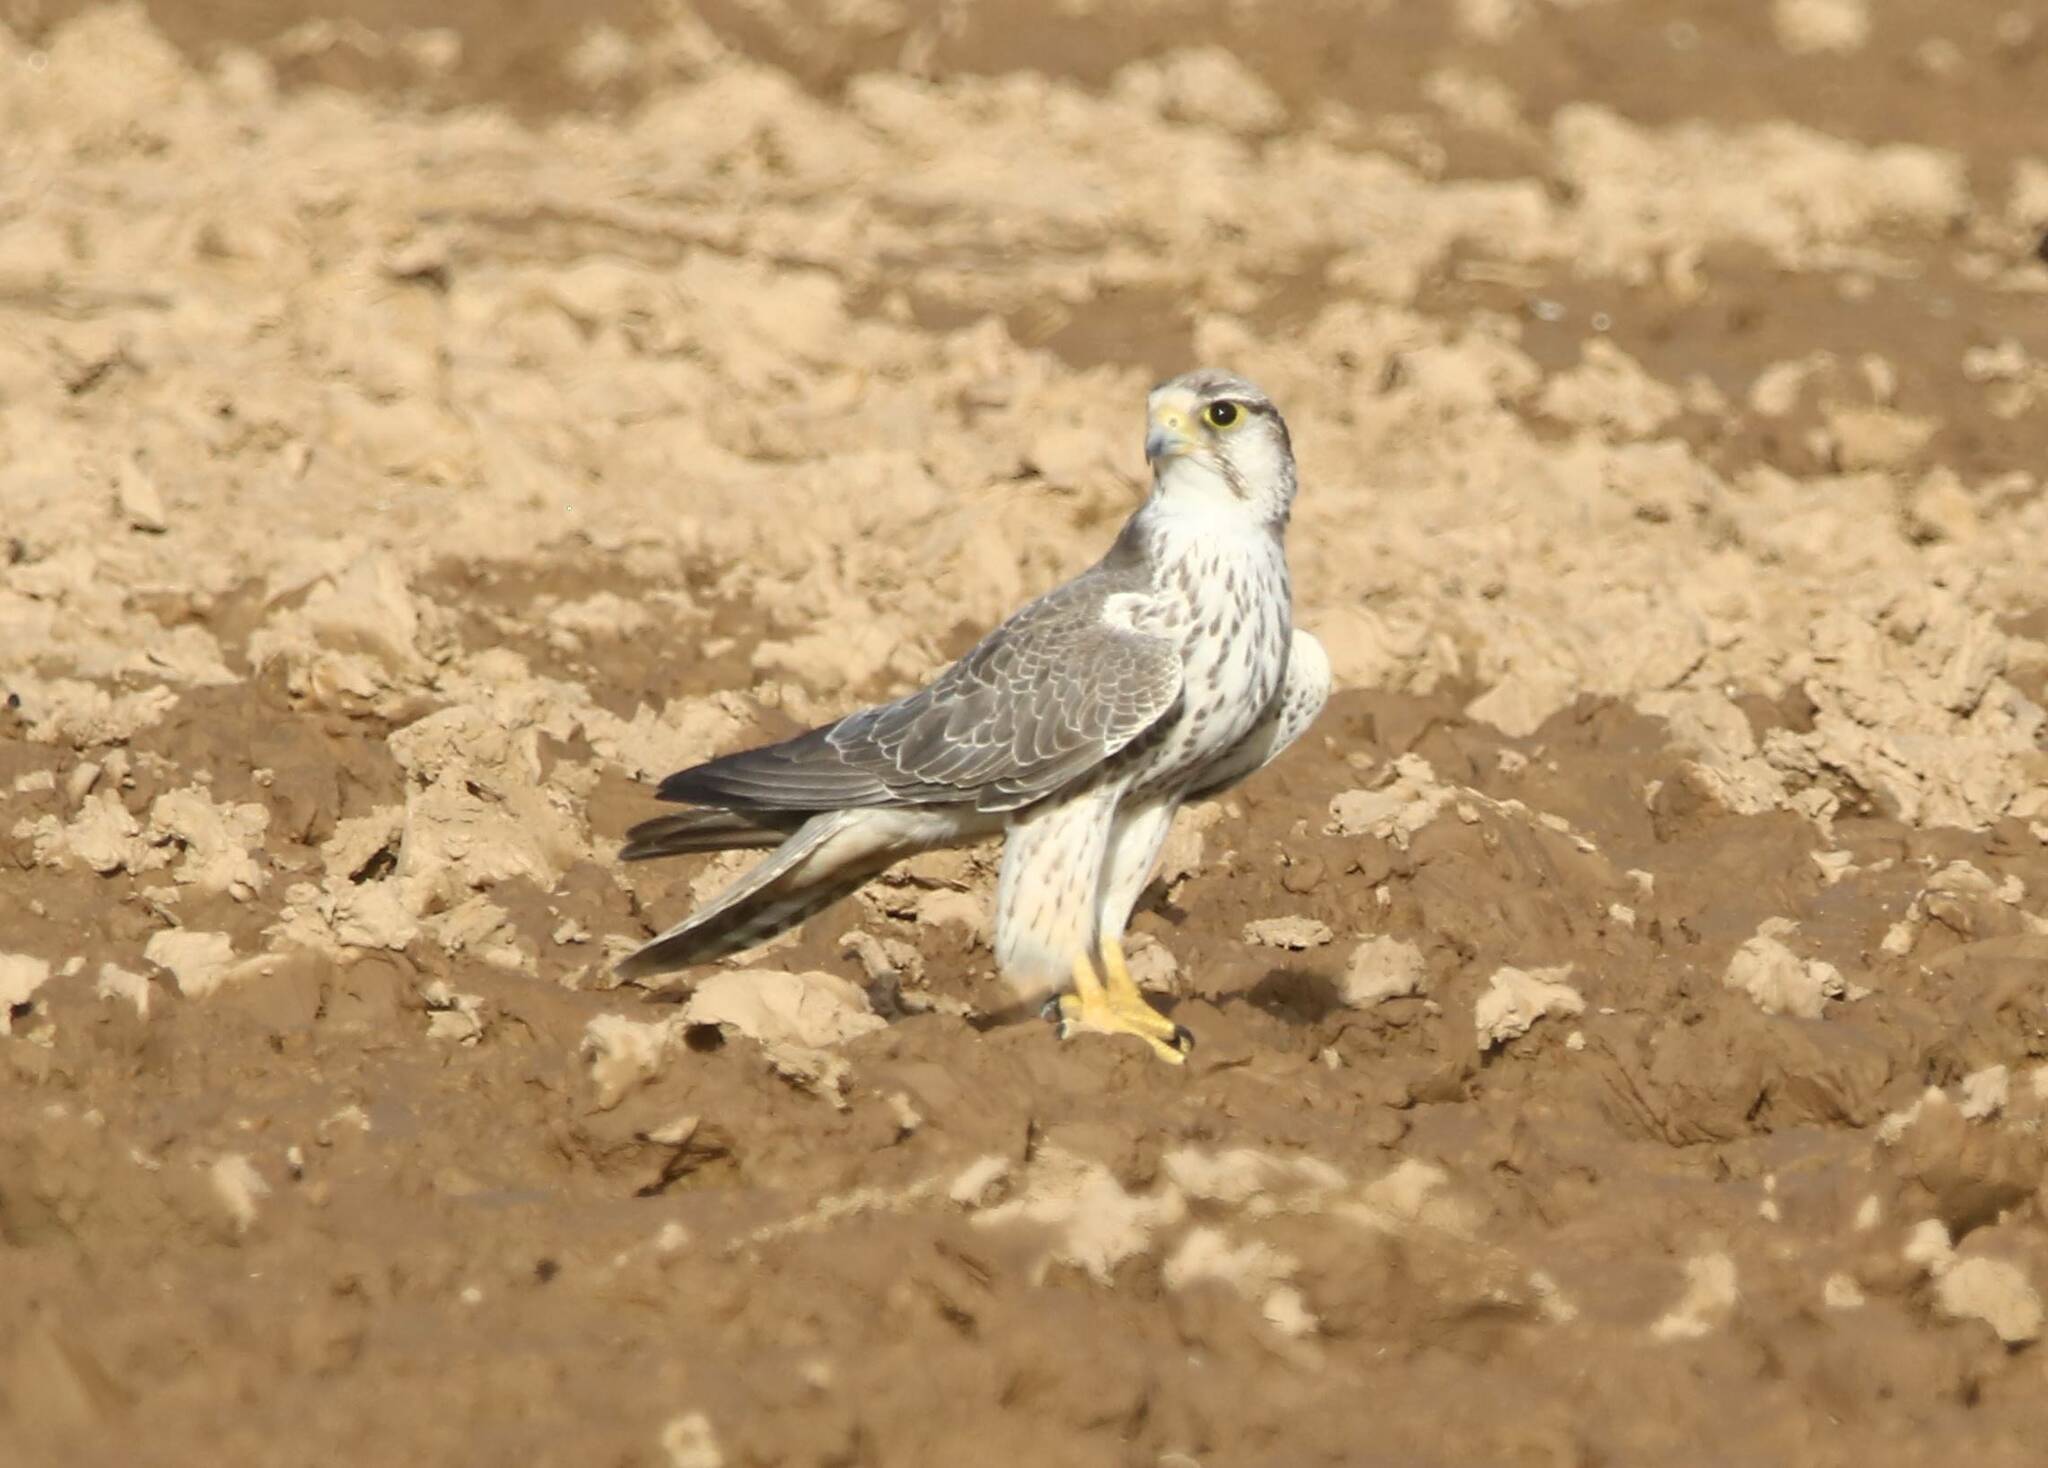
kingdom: Animalia
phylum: Chordata
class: Aves
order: Falconiformes
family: Falconidae
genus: Falco
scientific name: Falco biarmicus
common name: Lanner falcon
